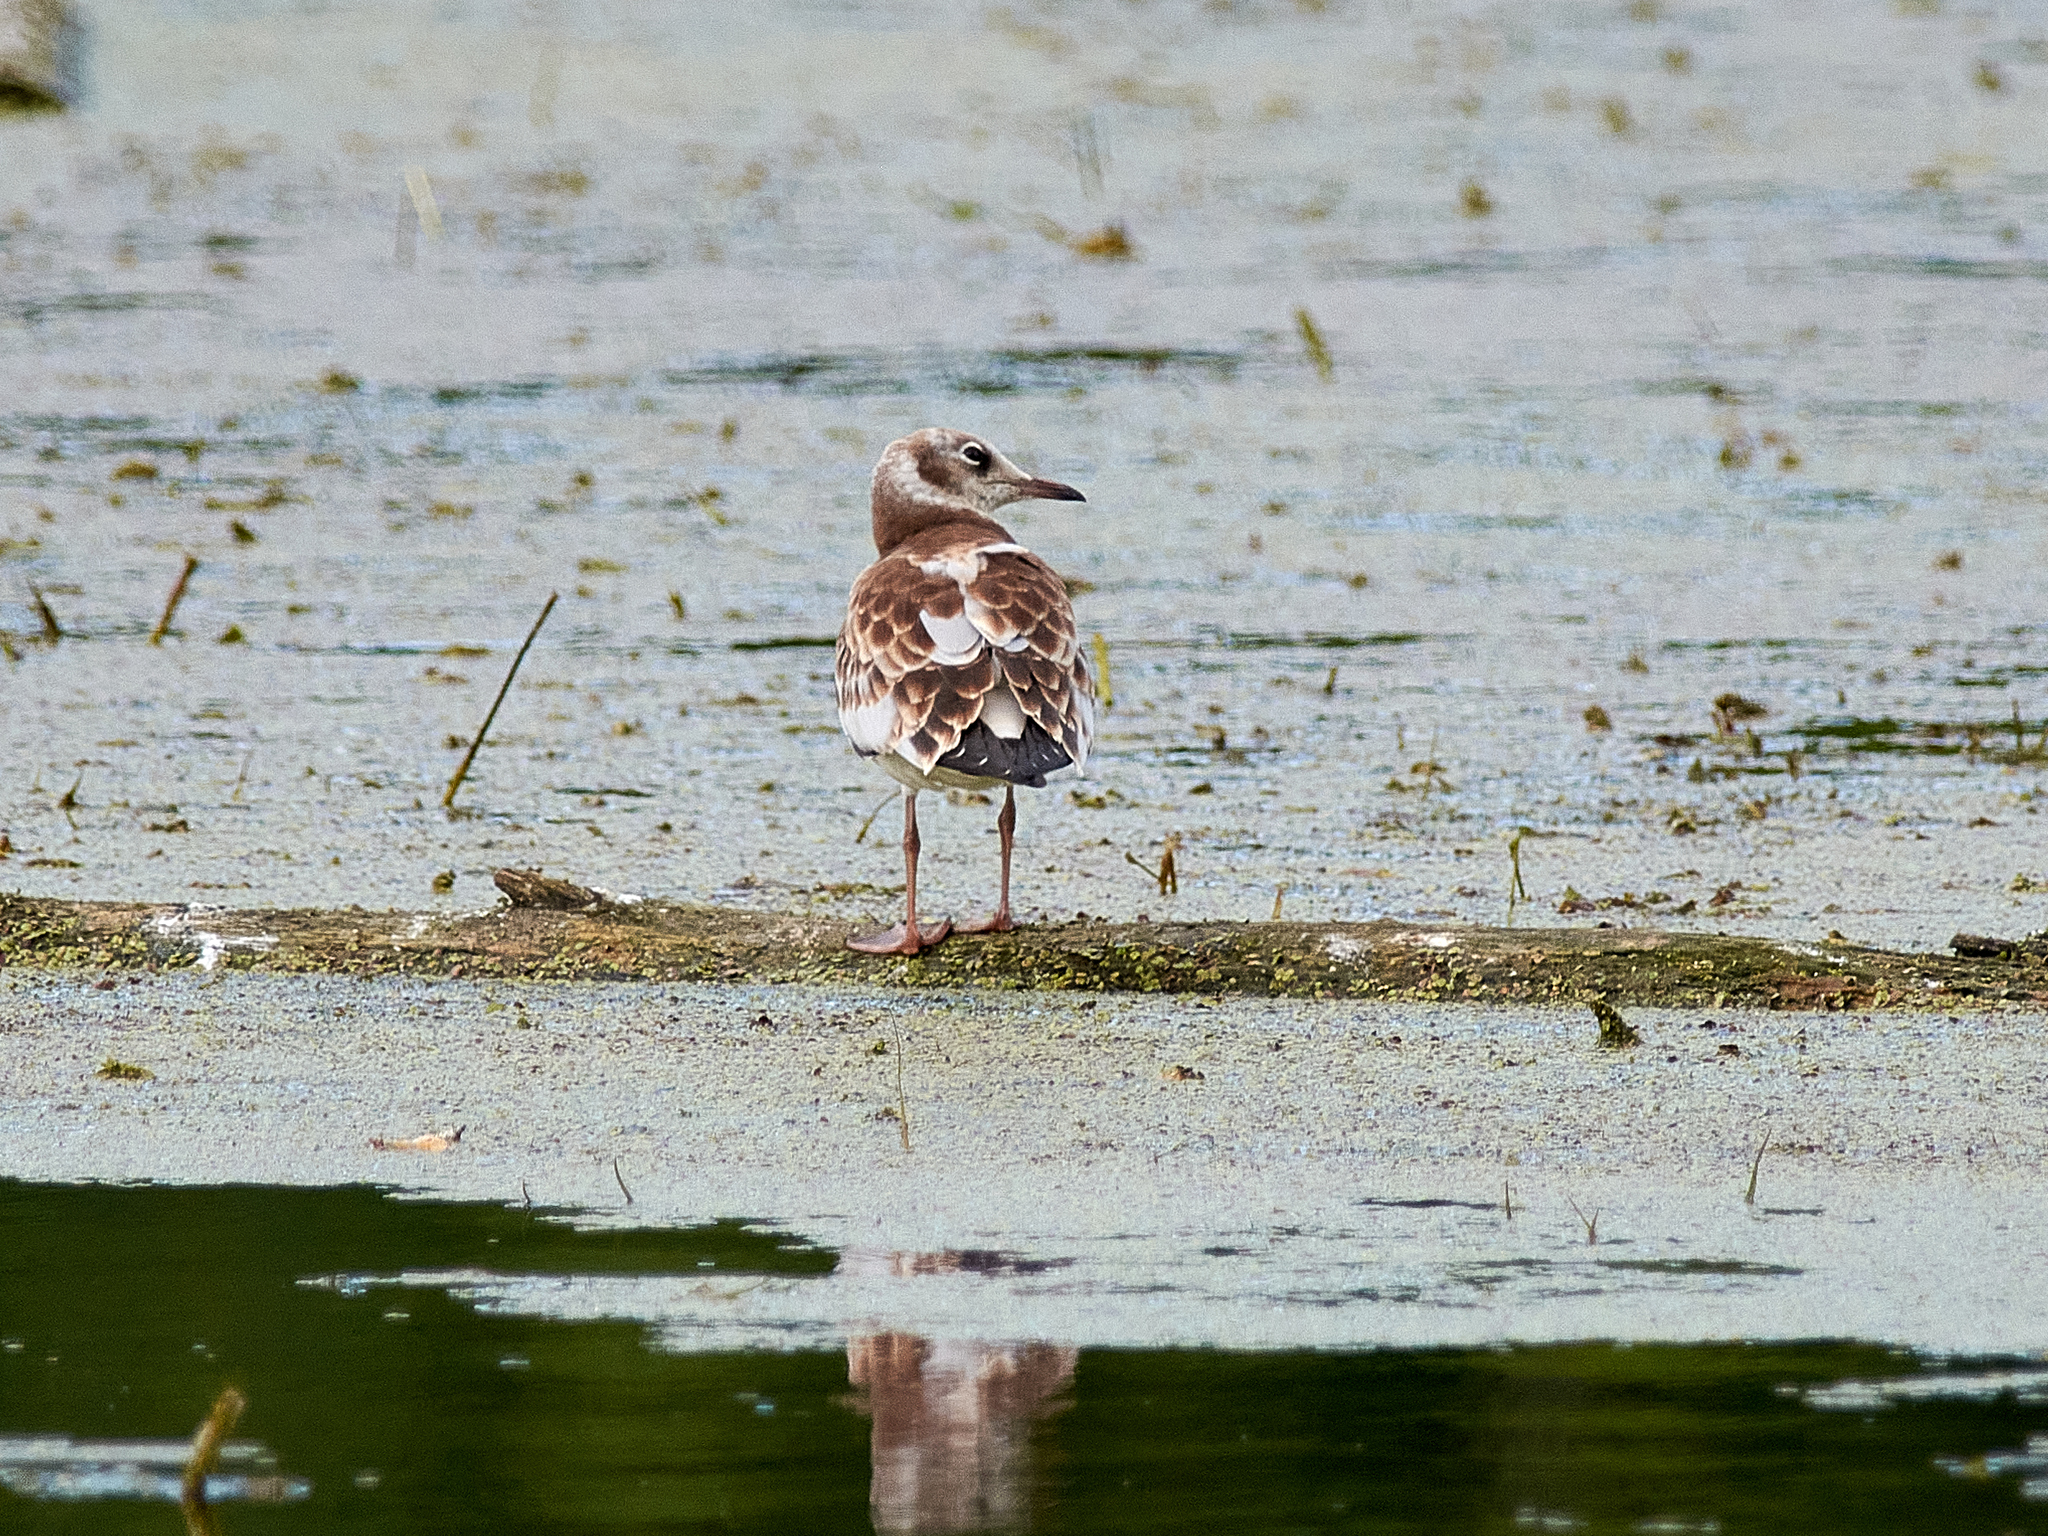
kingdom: Animalia
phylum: Chordata
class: Aves
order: Charadriiformes
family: Laridae
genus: Chroicocephalus
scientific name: Chroicocephalus ridibundus
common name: Black-headed gull
